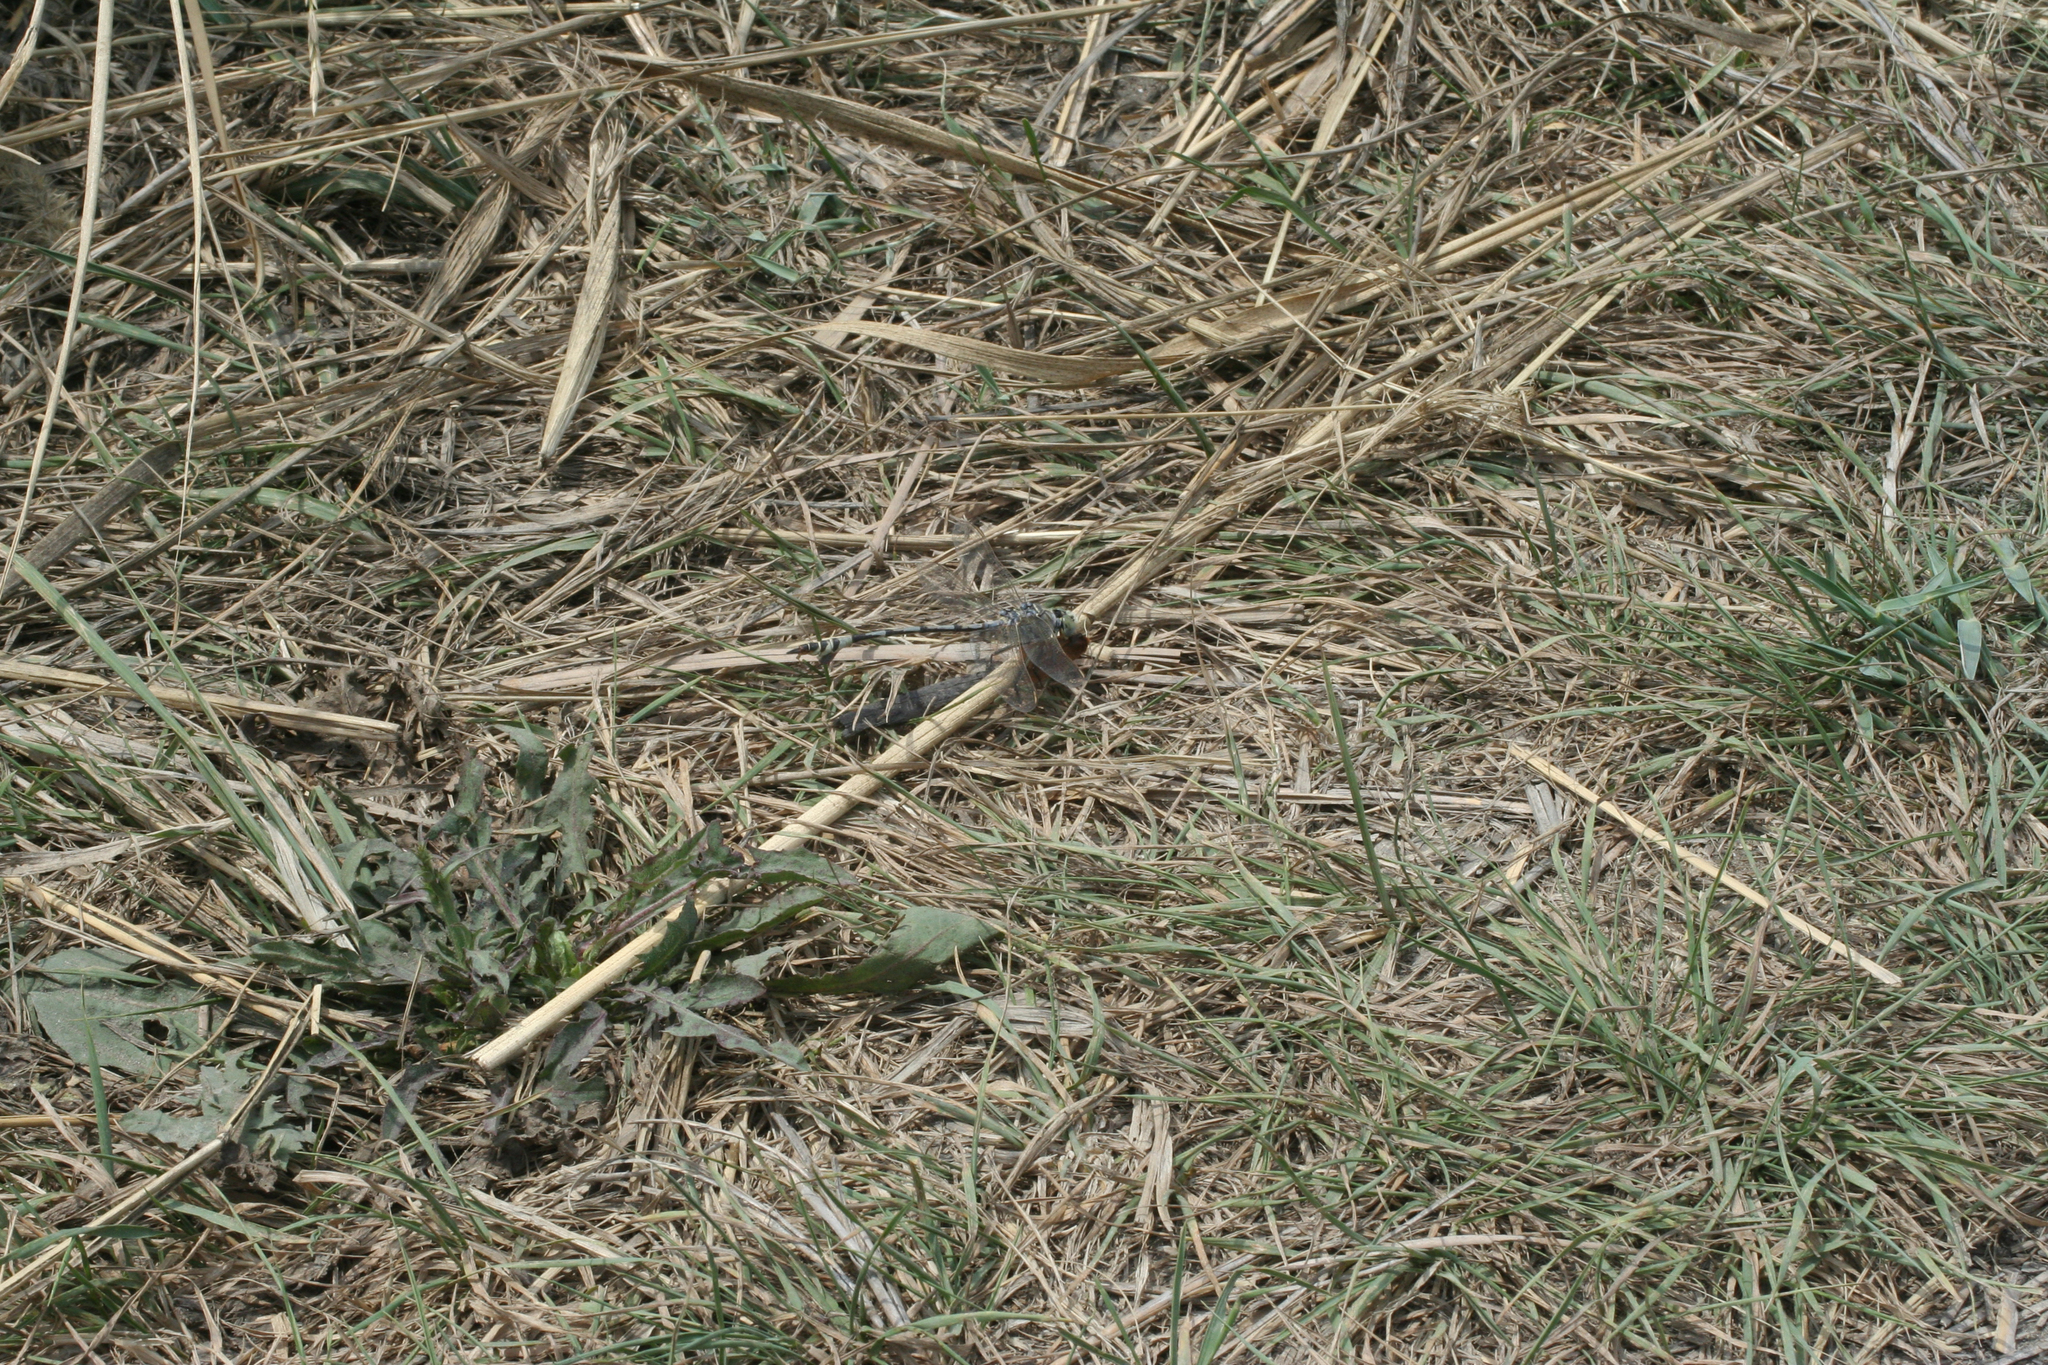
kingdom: Animalia
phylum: Arthropoda
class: Insecta
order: Odonata
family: Gomphidae
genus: Lindenia
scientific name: Lindenia tetraphylla
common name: Bladetail
